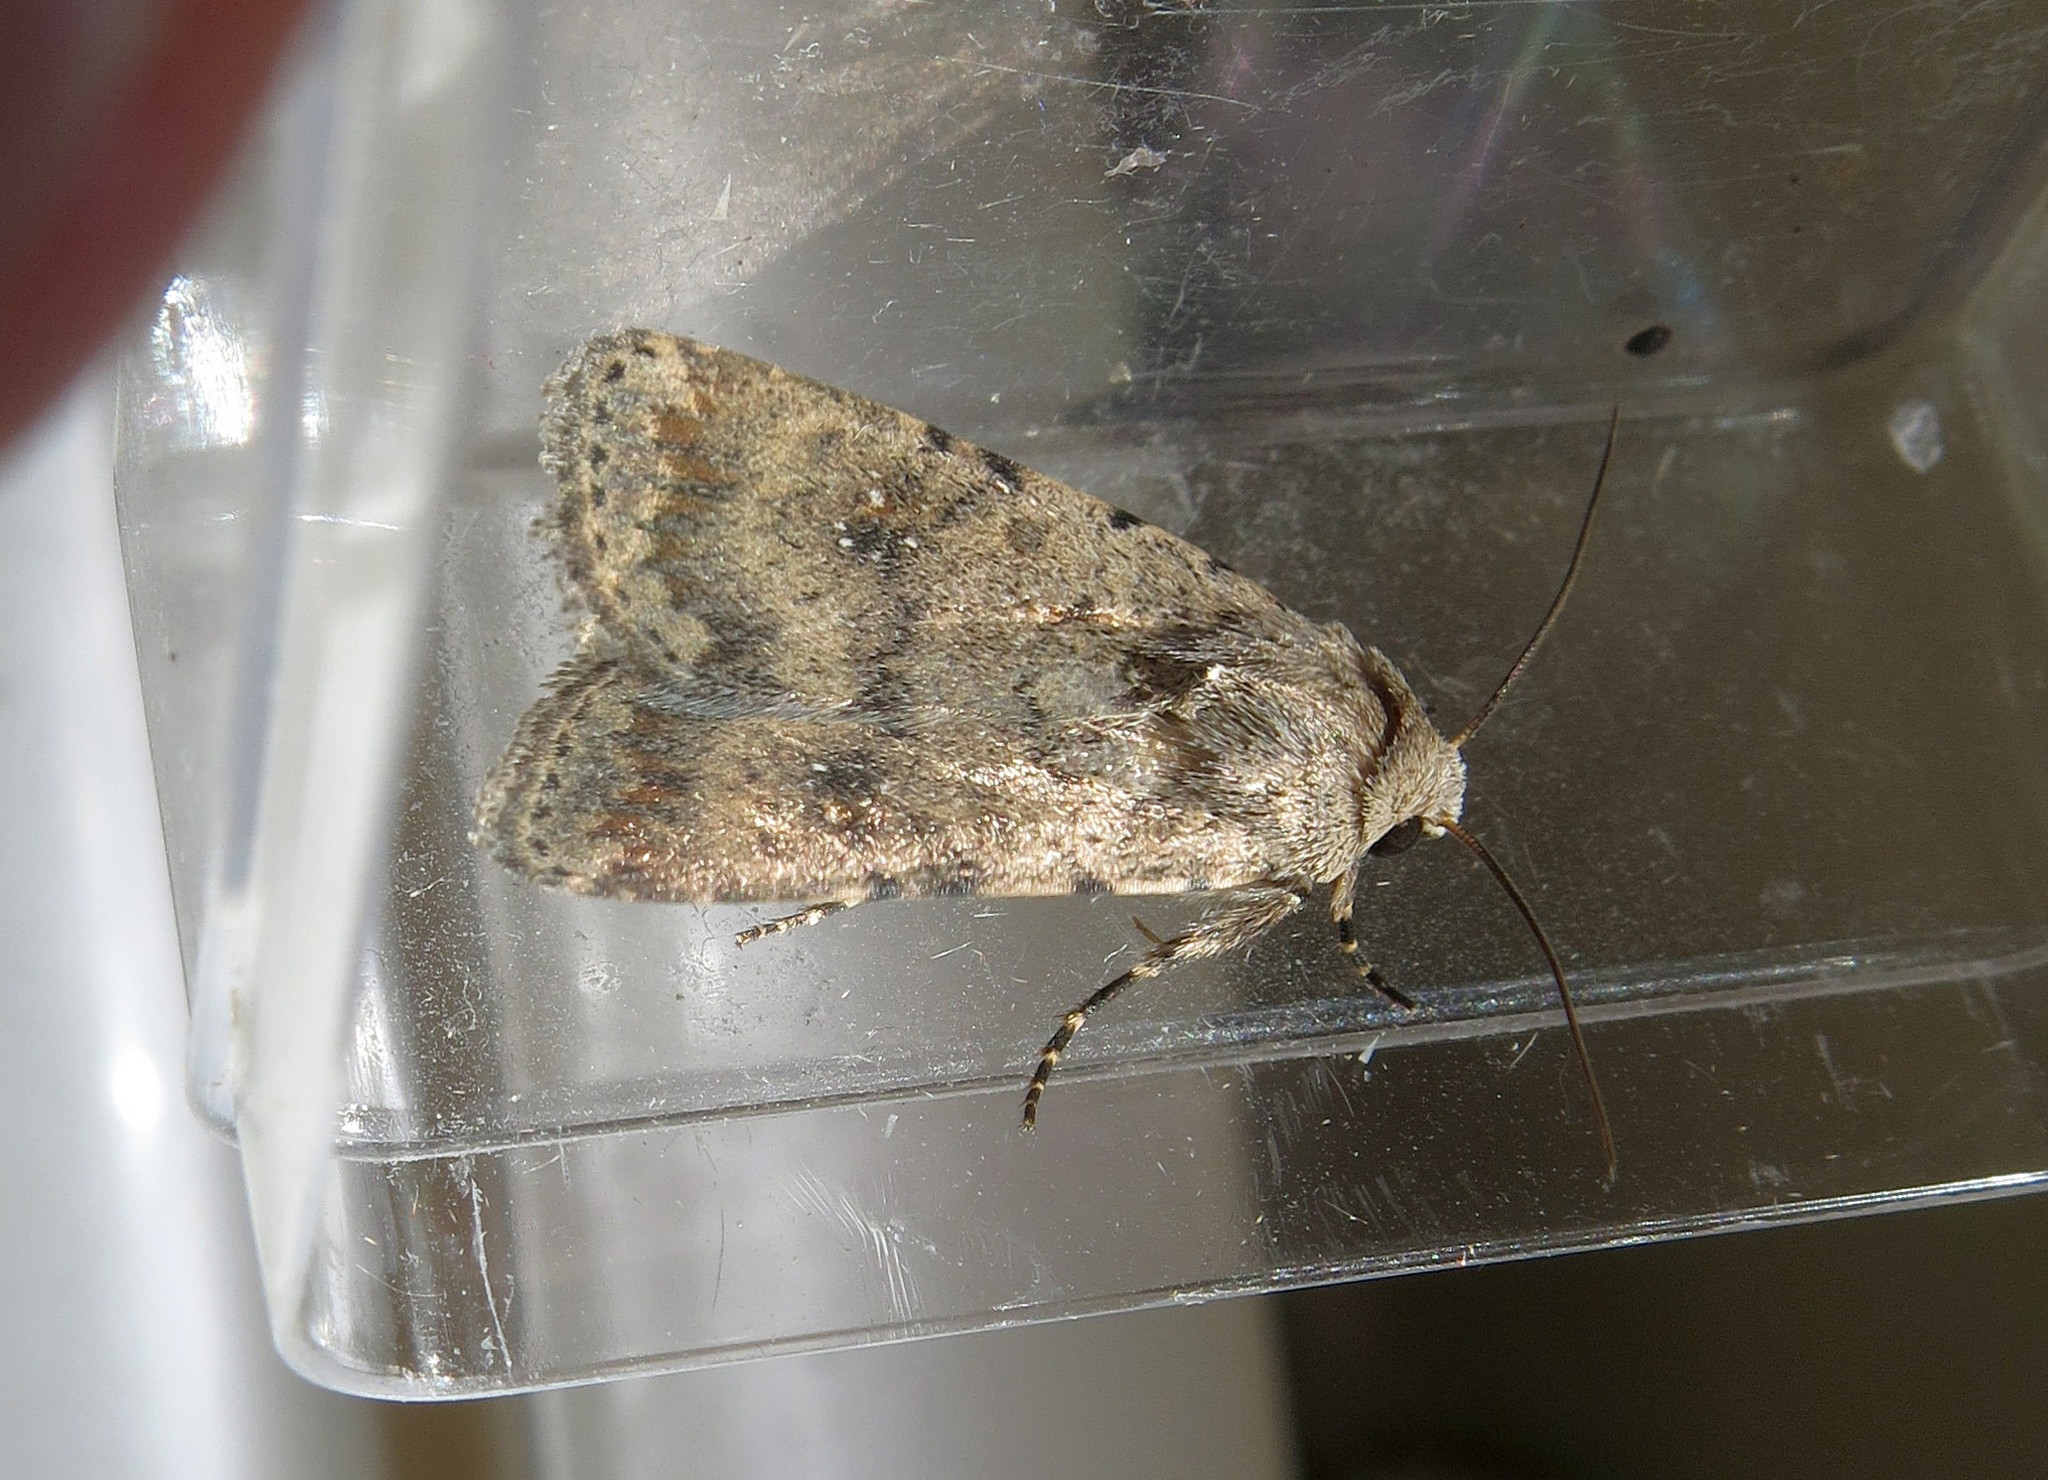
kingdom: Animalia
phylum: Arthropoda
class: Insecta
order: Lepidoptera
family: Noctuidae
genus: Caradrina
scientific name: Caradrina clavipalpis
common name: Pale mottled willow
